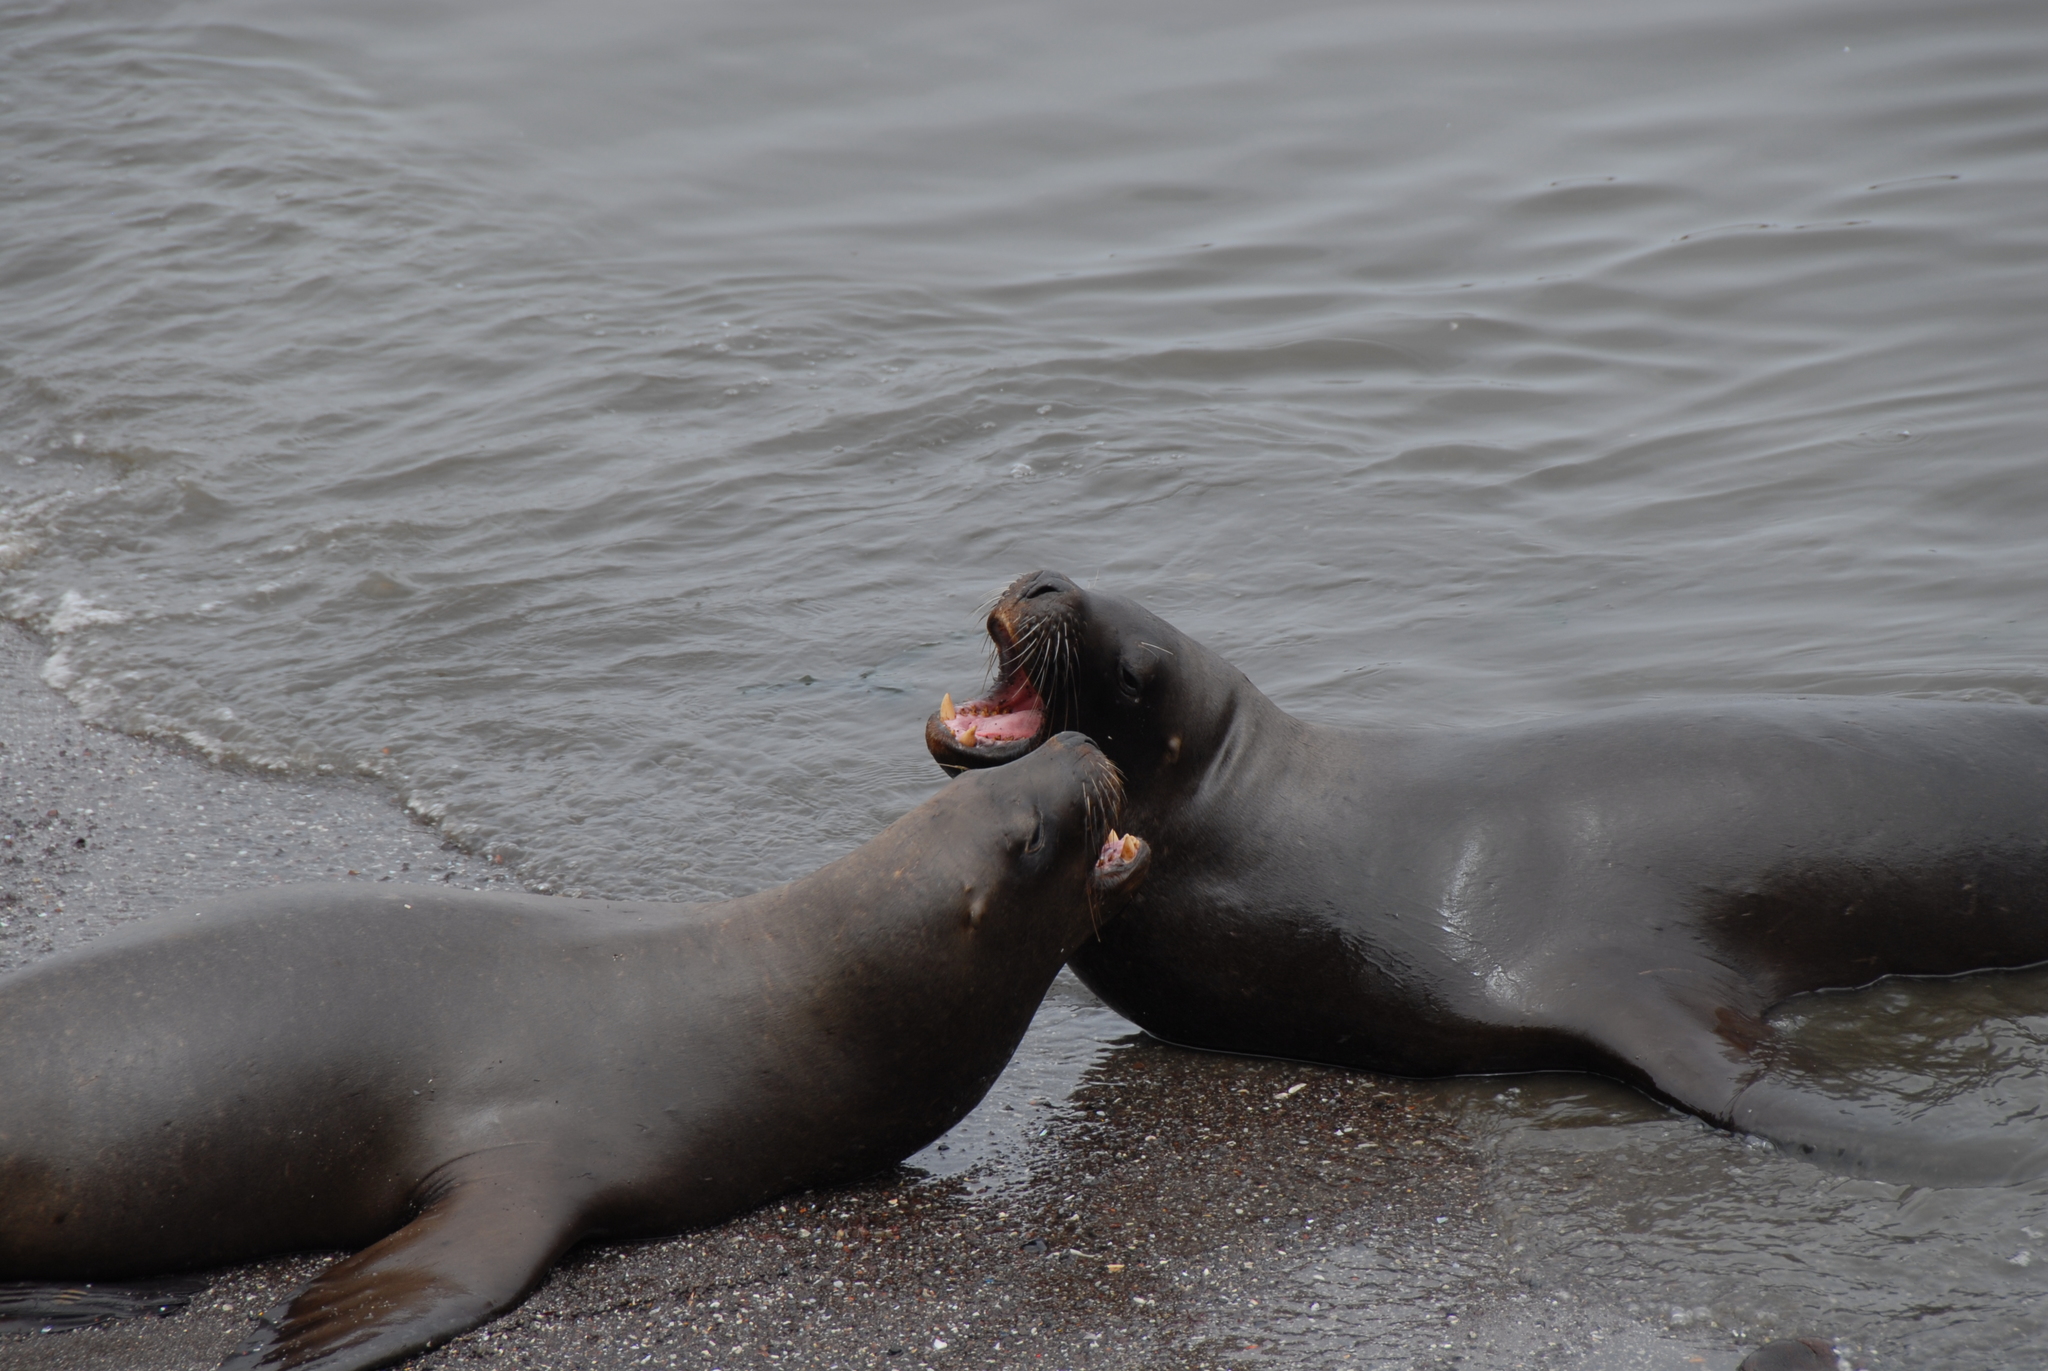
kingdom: Animalia
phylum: Chordata
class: Mammalia
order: Carnivora
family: Otariidae
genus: Otaria
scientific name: Otaria byronia
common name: South american sea lion
